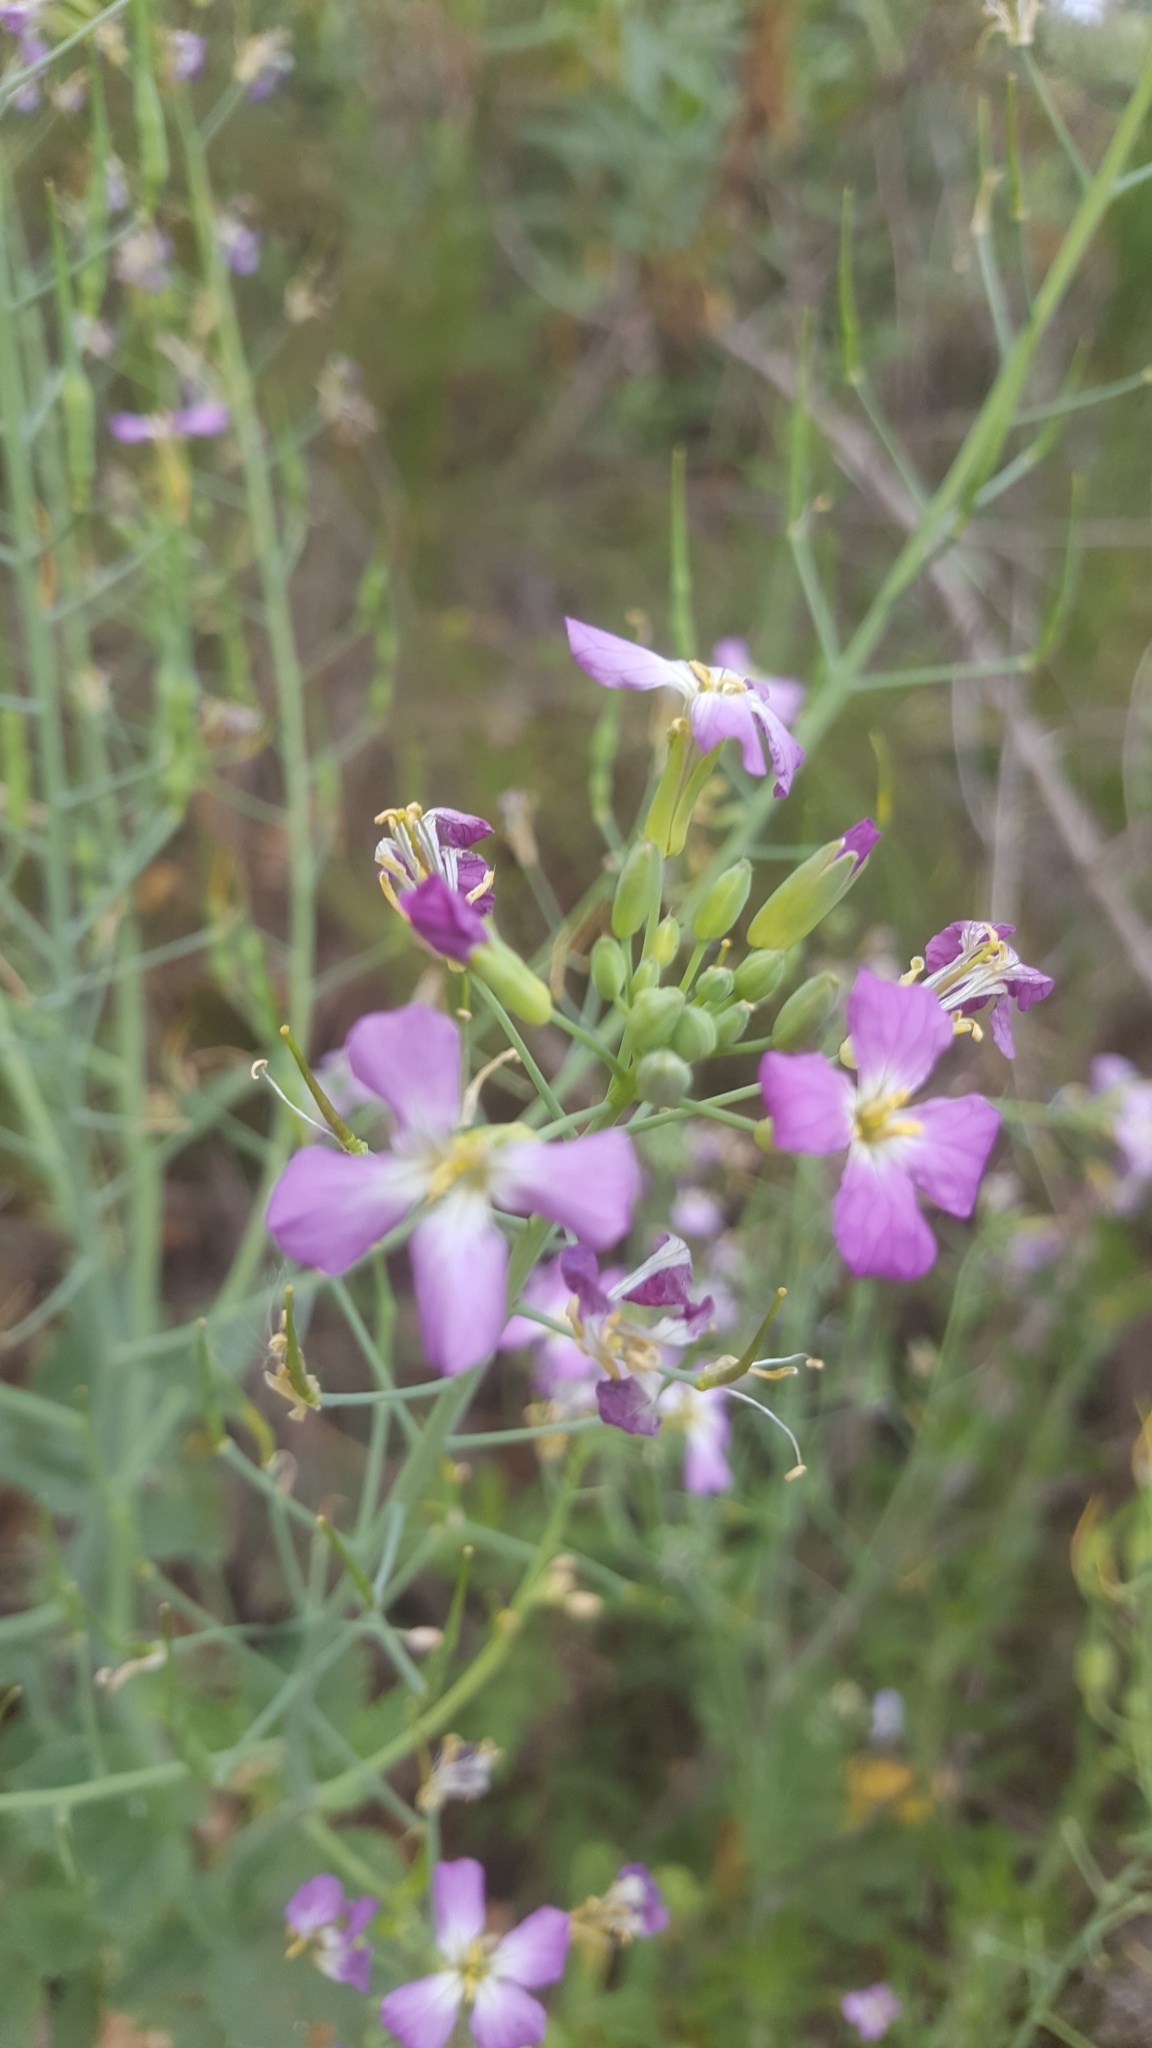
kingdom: Plantae
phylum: Tracheophyta
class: Magnoliopsida
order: Brassicales
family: Brassicaceae
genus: Raphanus
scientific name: Raphanus sativus
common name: Cultivated radish
